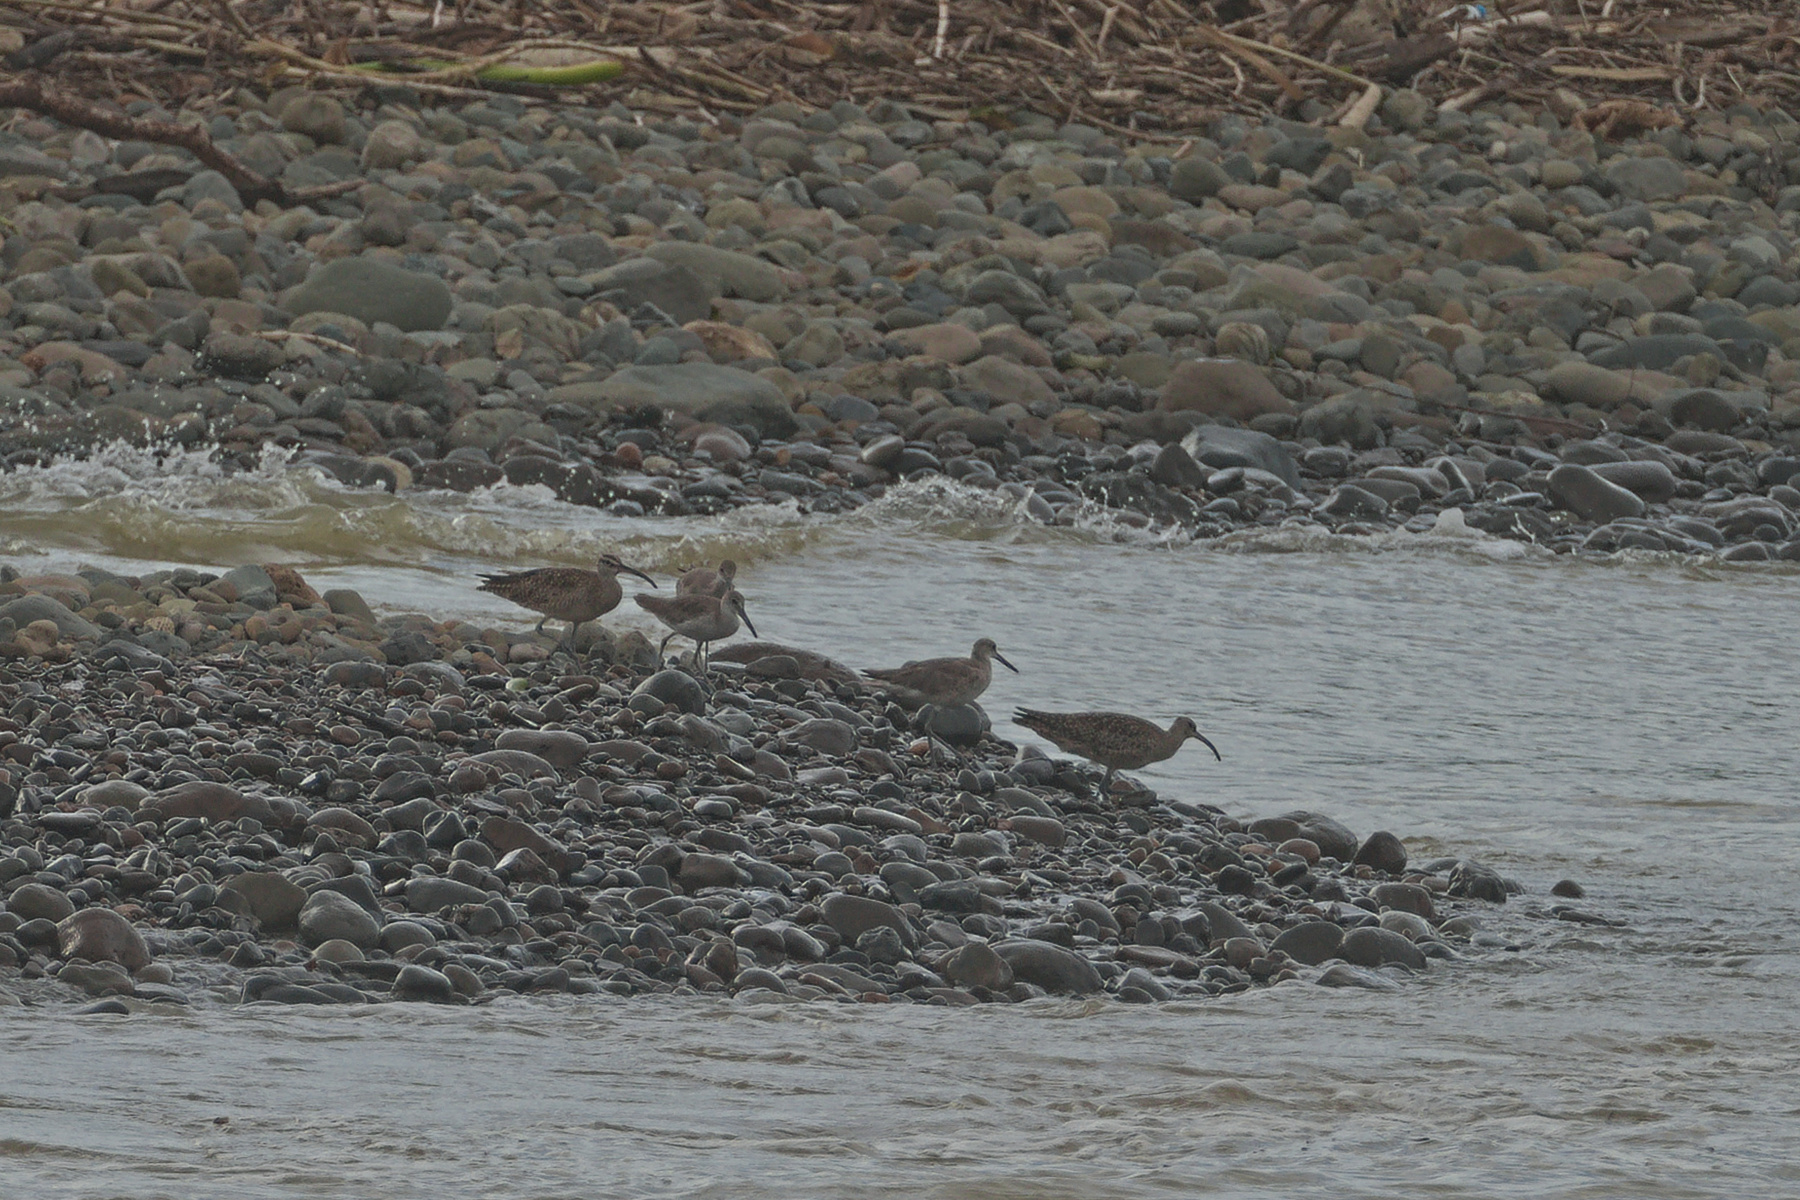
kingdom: Animalia
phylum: Chordata
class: Aves
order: Charadriiformes
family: Scolopacidae
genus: Numenius
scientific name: Numenius phaeopus
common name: Whimbrel
